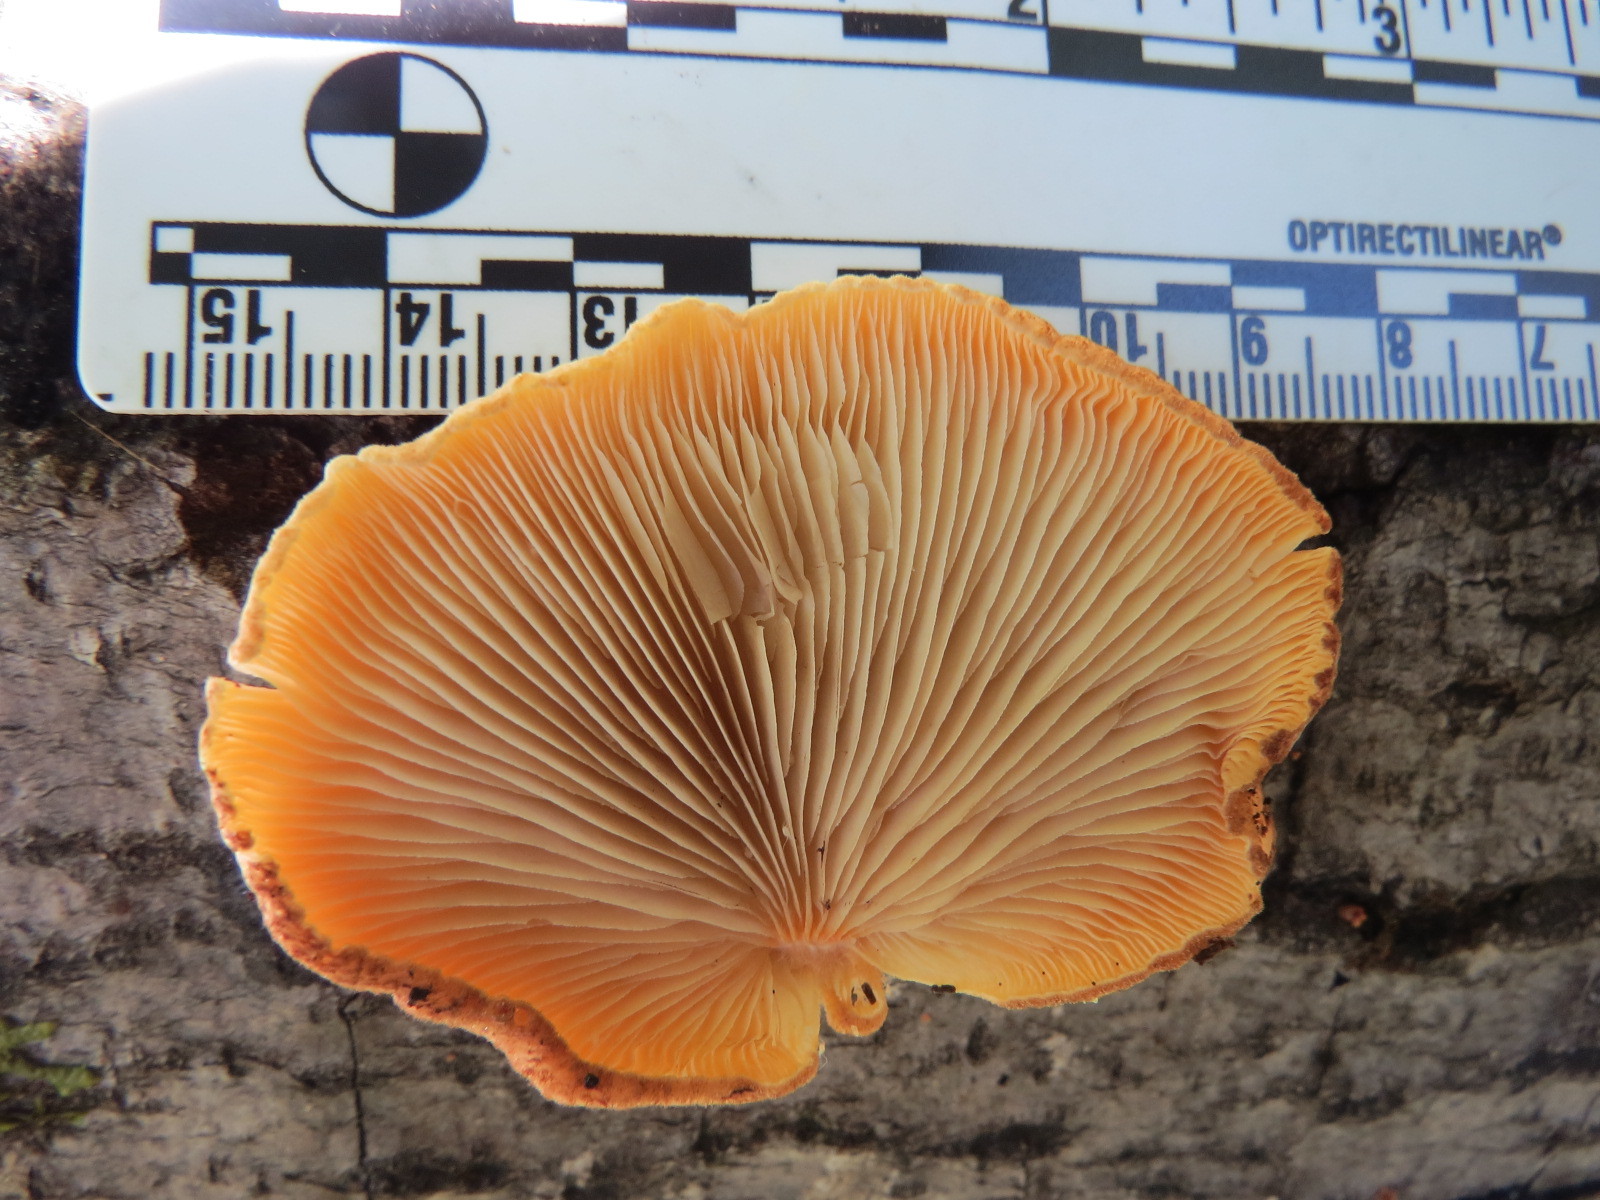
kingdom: Fungi
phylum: Basidiomycota
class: Agaricomycetes
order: Agaricales
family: Crepidotaceae
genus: Crepidotus
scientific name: Crepidotus crocophyllus
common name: Saffron oysterling
